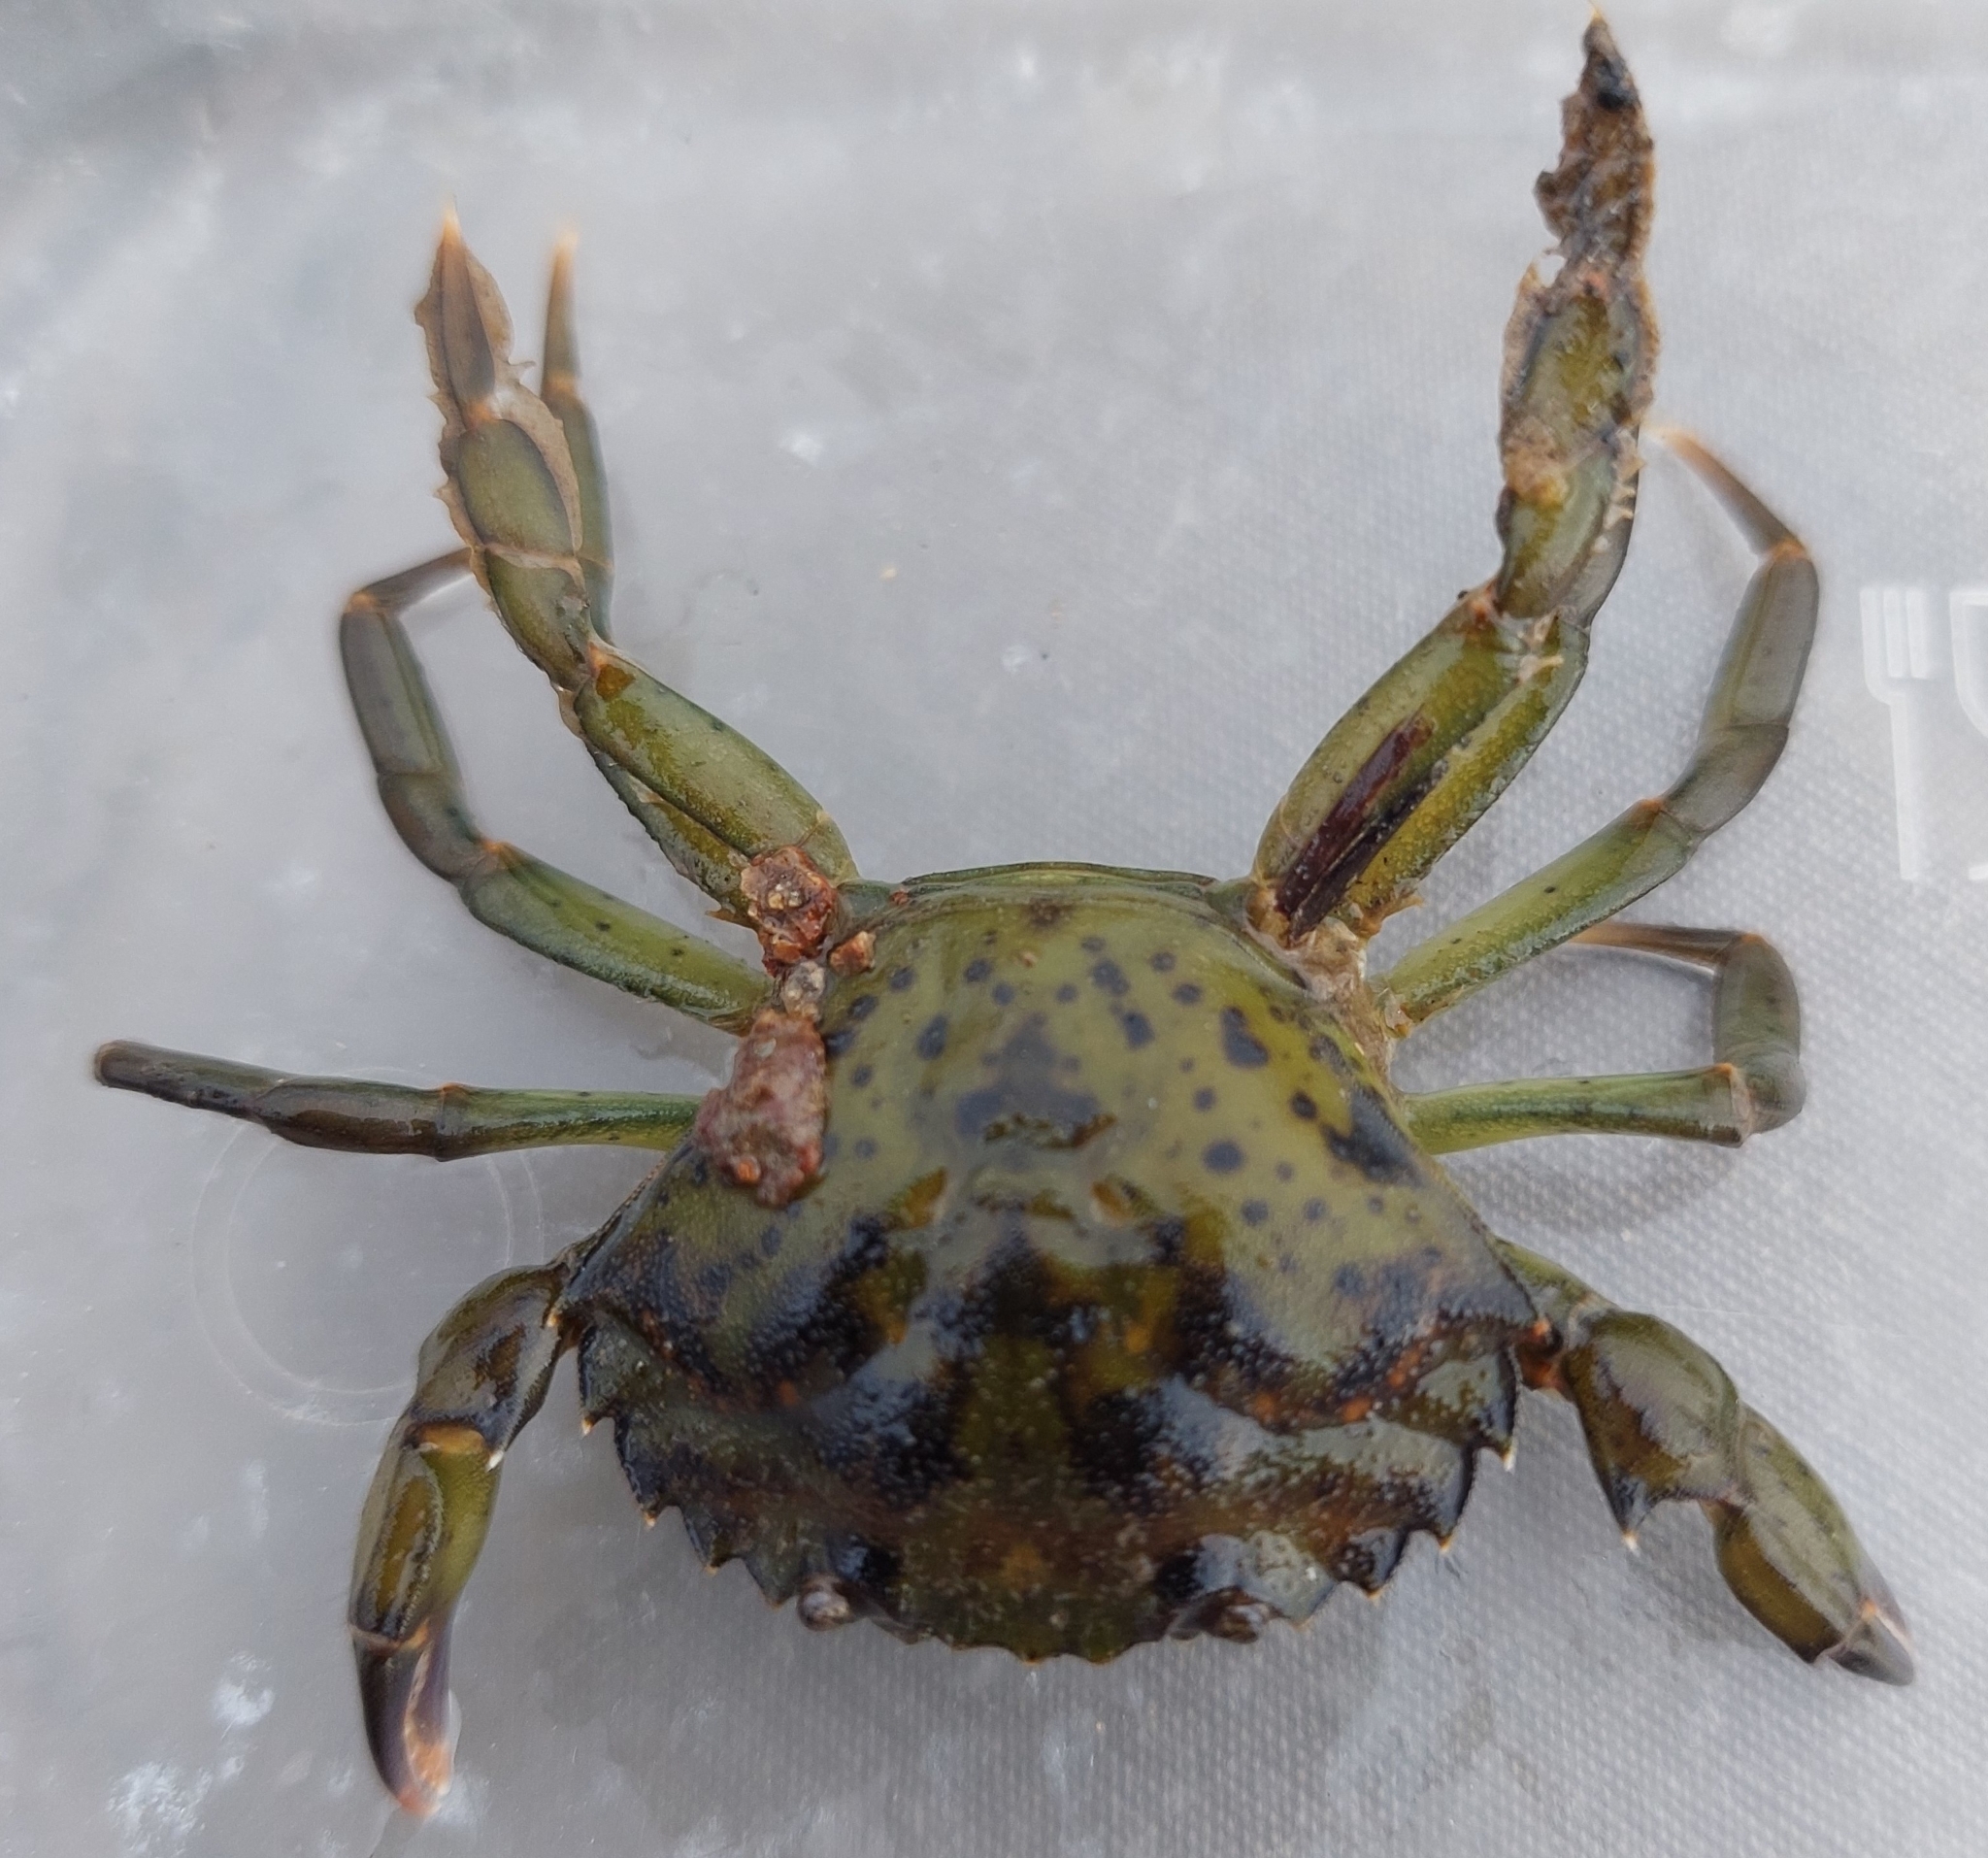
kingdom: Animalia
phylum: Arthropoda
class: Malacostraca
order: Decapoda
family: Carcinidae
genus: Carcinus
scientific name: Carcinus maenas
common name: European green crab
